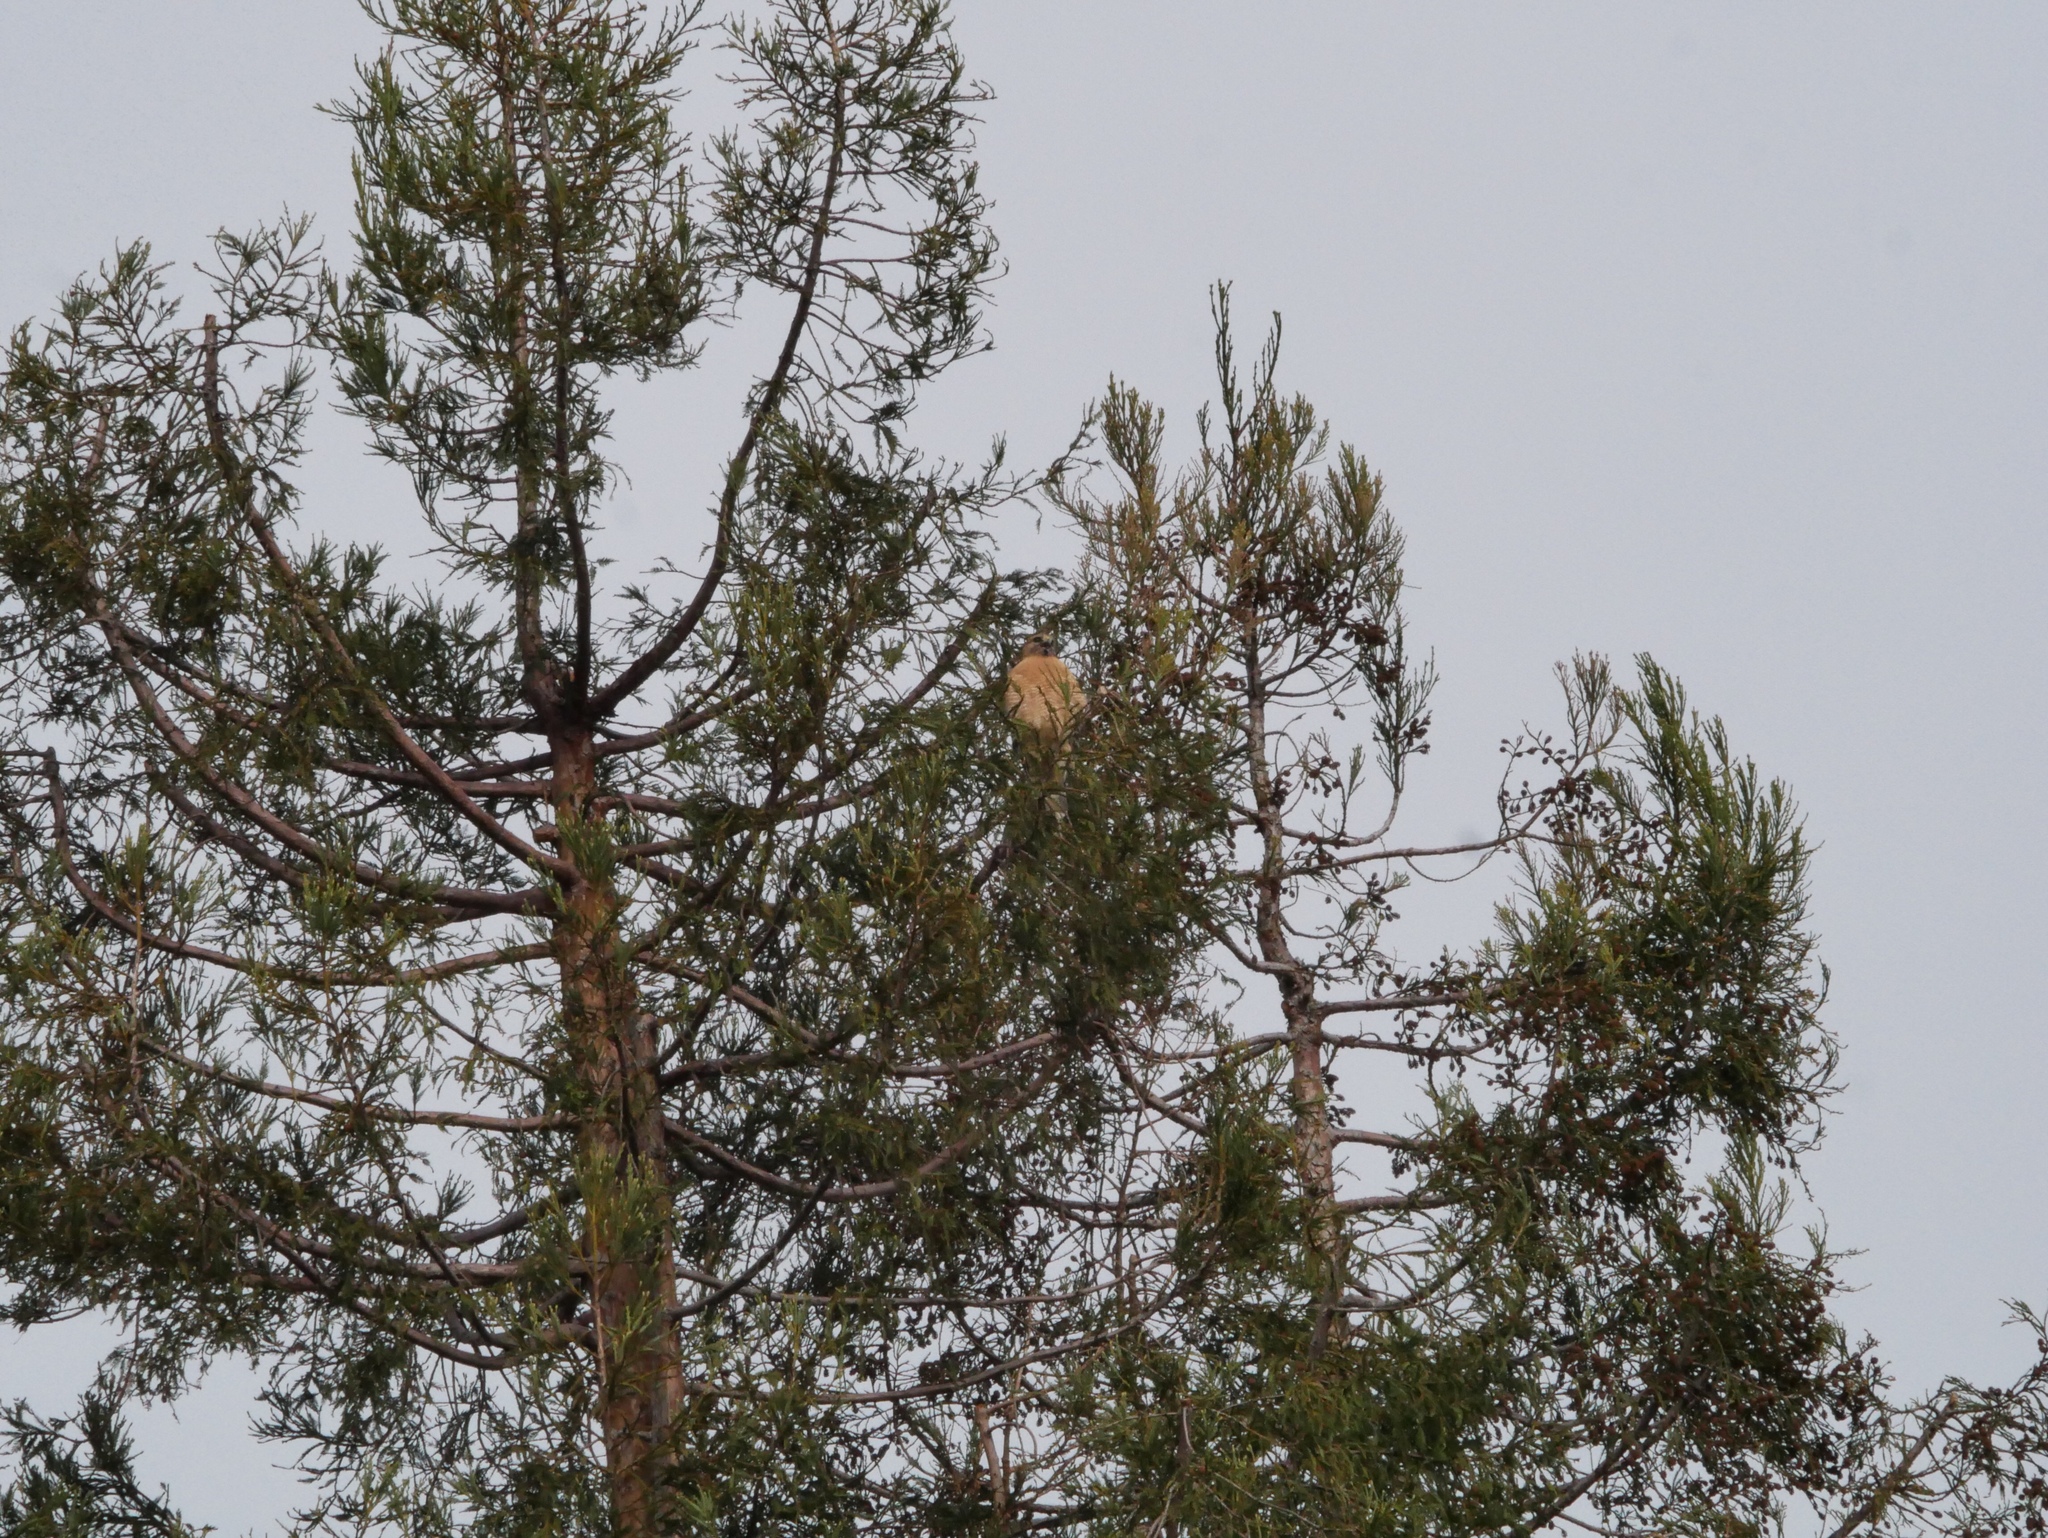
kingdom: Animalia
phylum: Chordata
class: Aves
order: Accipitriformes
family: Accipitridae
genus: Buteo
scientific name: Buteo lineatus
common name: Red-shouldered hawk
